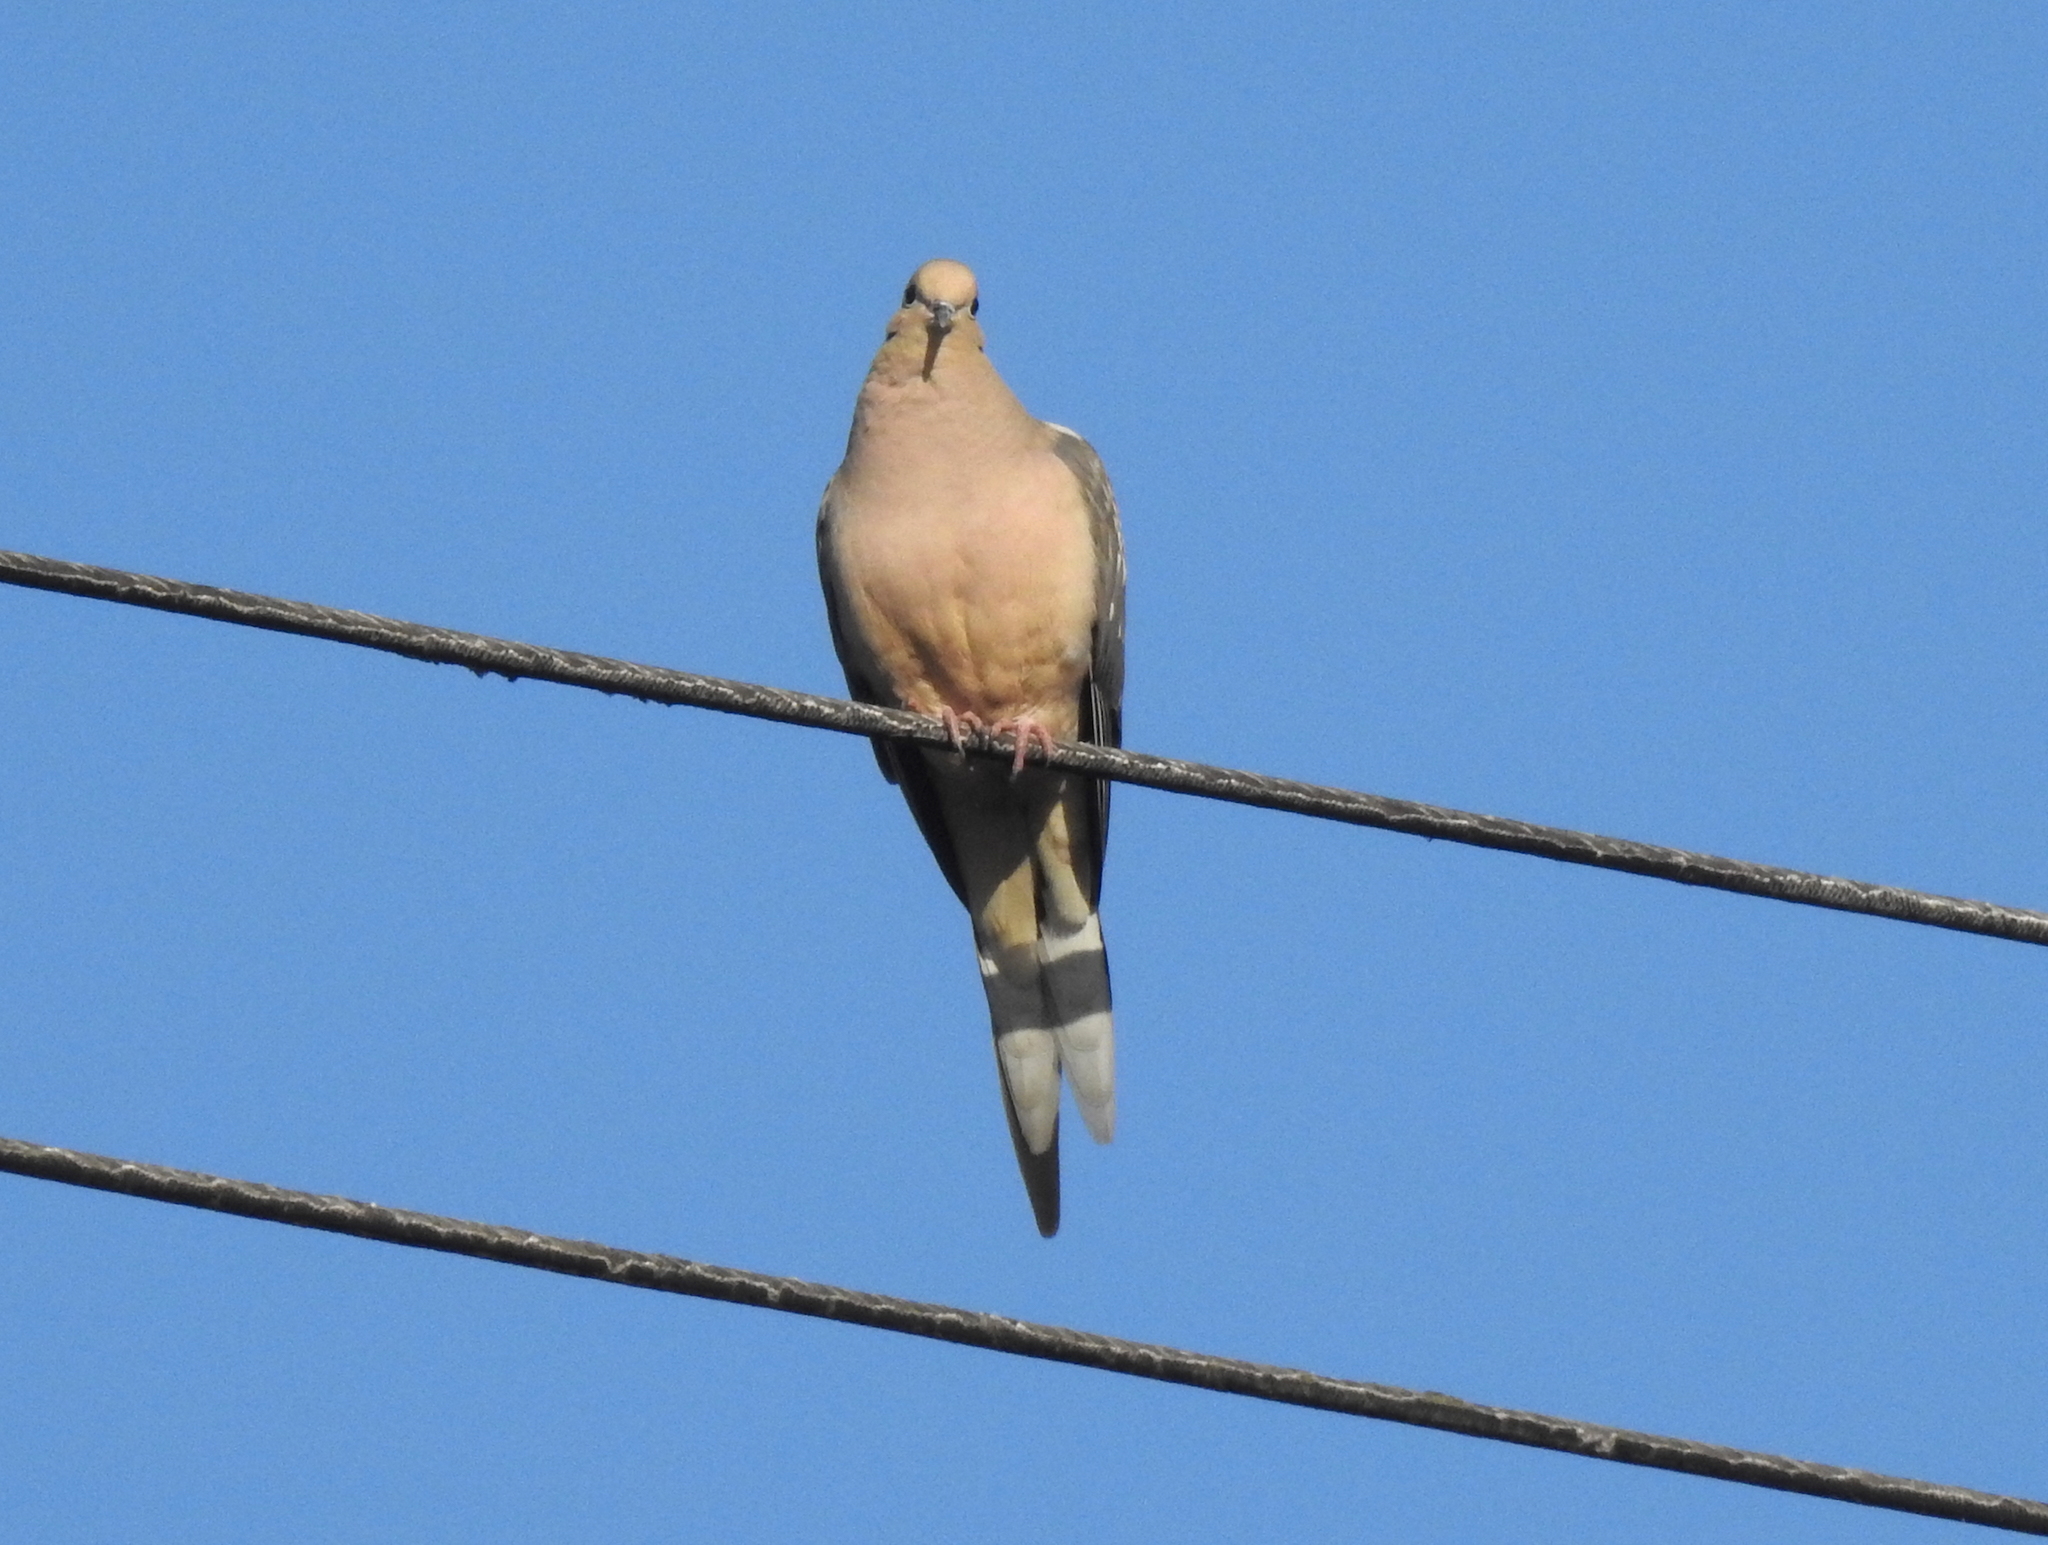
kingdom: Animalia
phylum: Chordata
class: Aves
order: Columbiformes
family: Columbidae
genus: Zenaida
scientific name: Zenaida macroura
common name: Mourning dove
